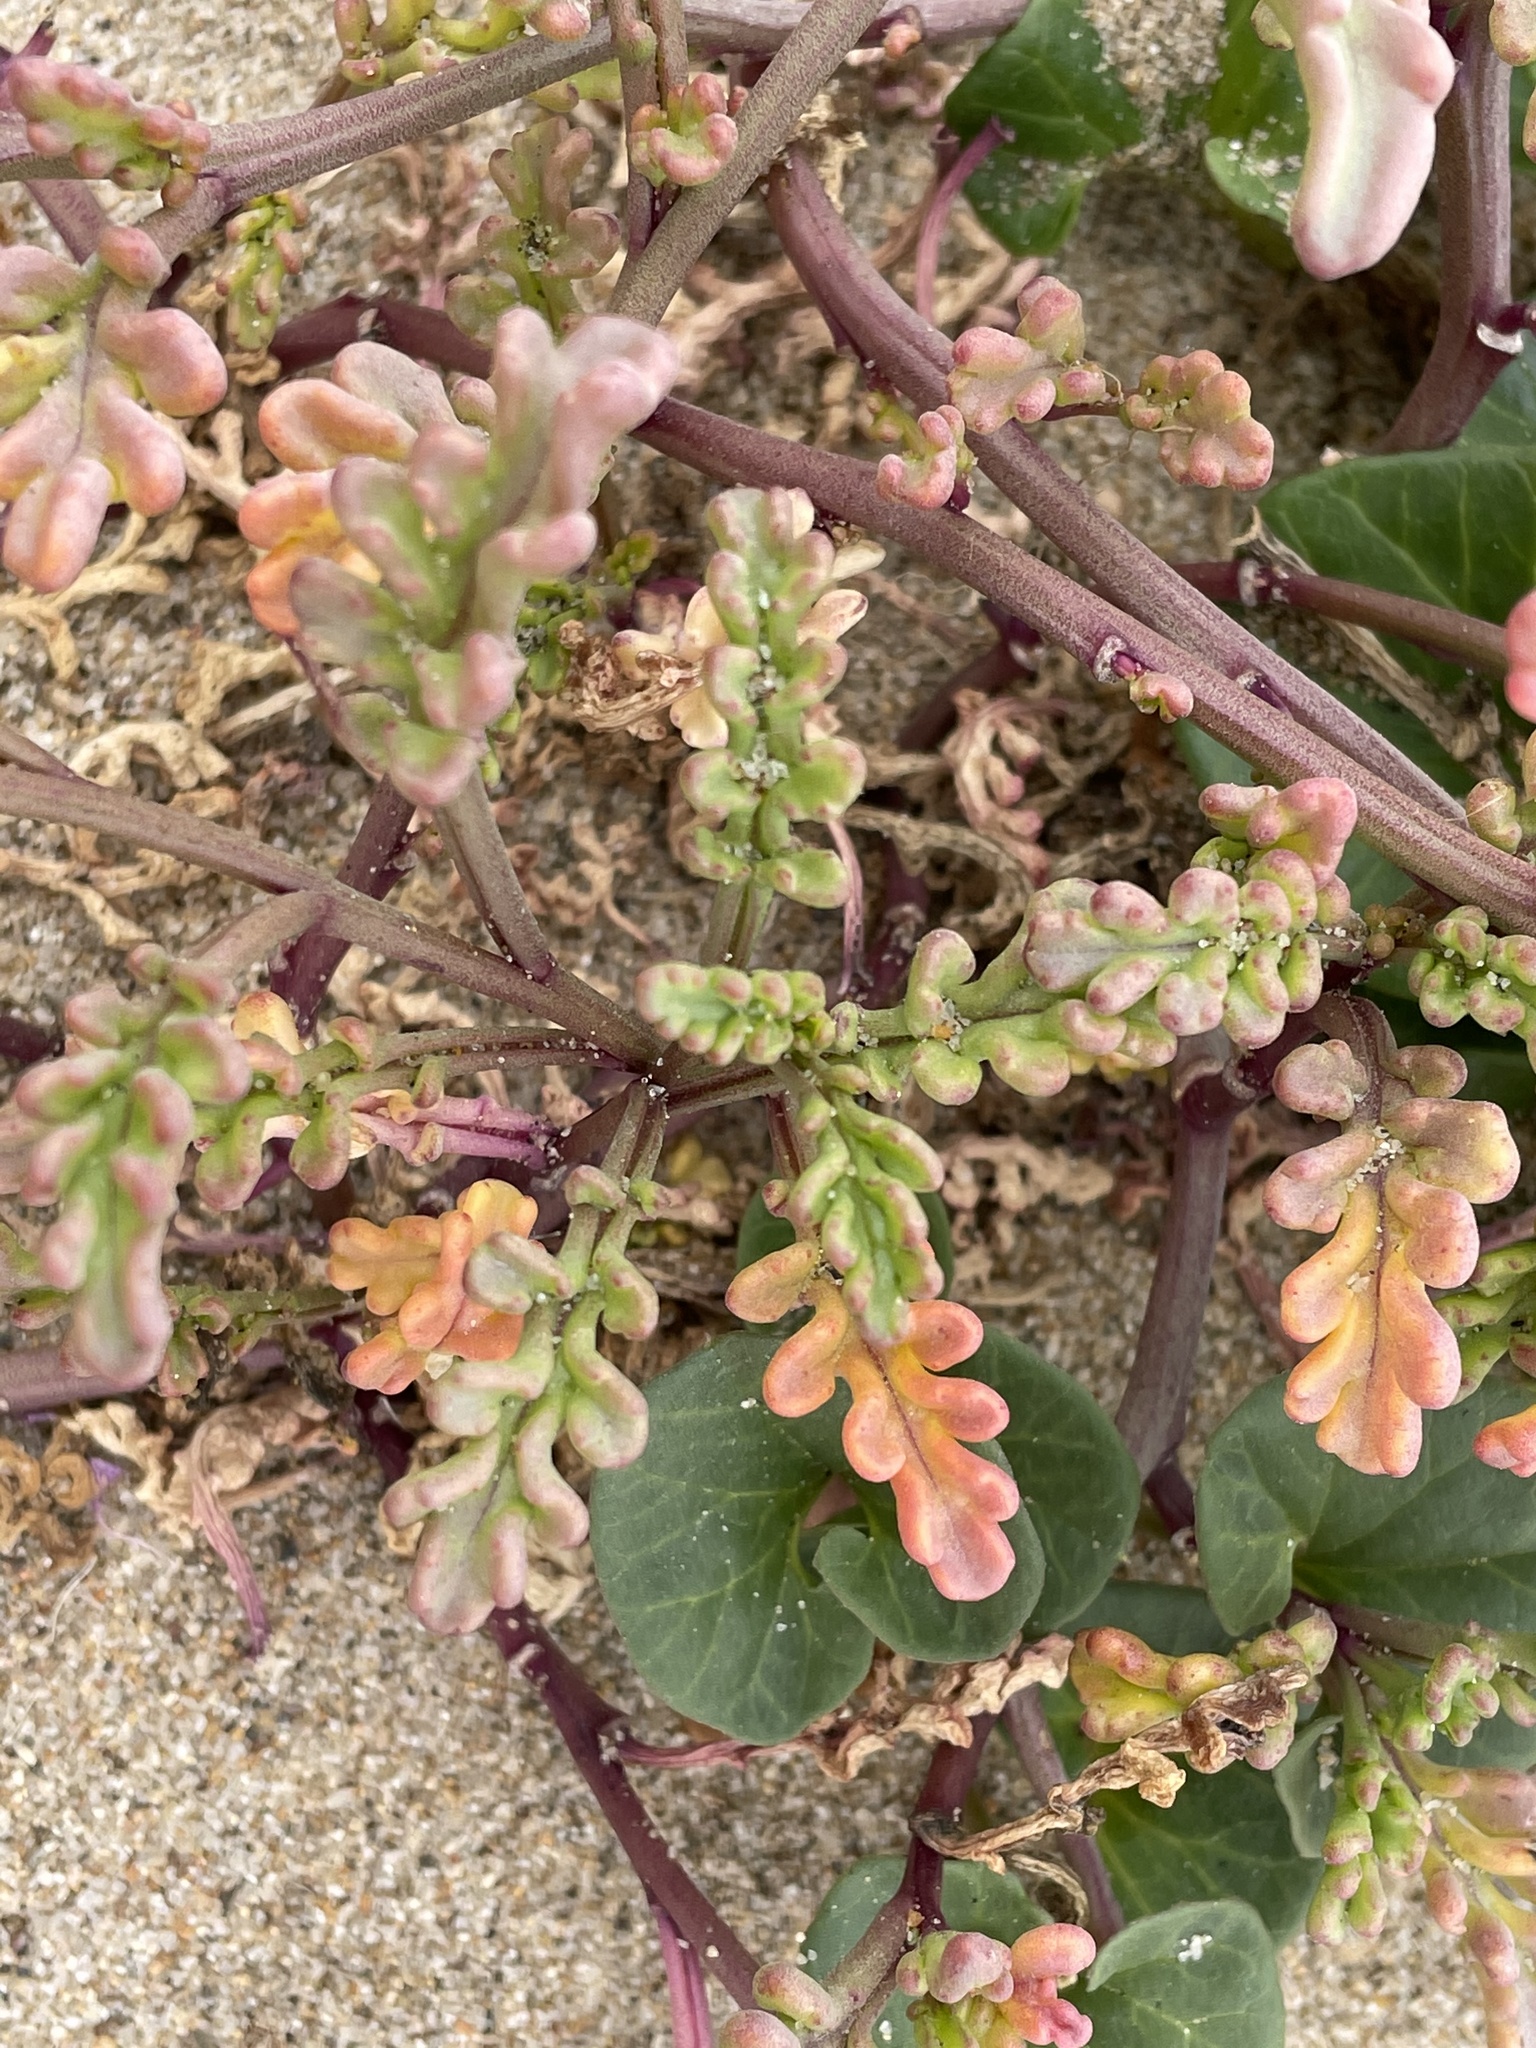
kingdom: Plantae
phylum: Tracheophyta
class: Magnoliopsida
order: Brassicales
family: Brassicaceae
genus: Cakile
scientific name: Cakile maritima
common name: Sea rocket
